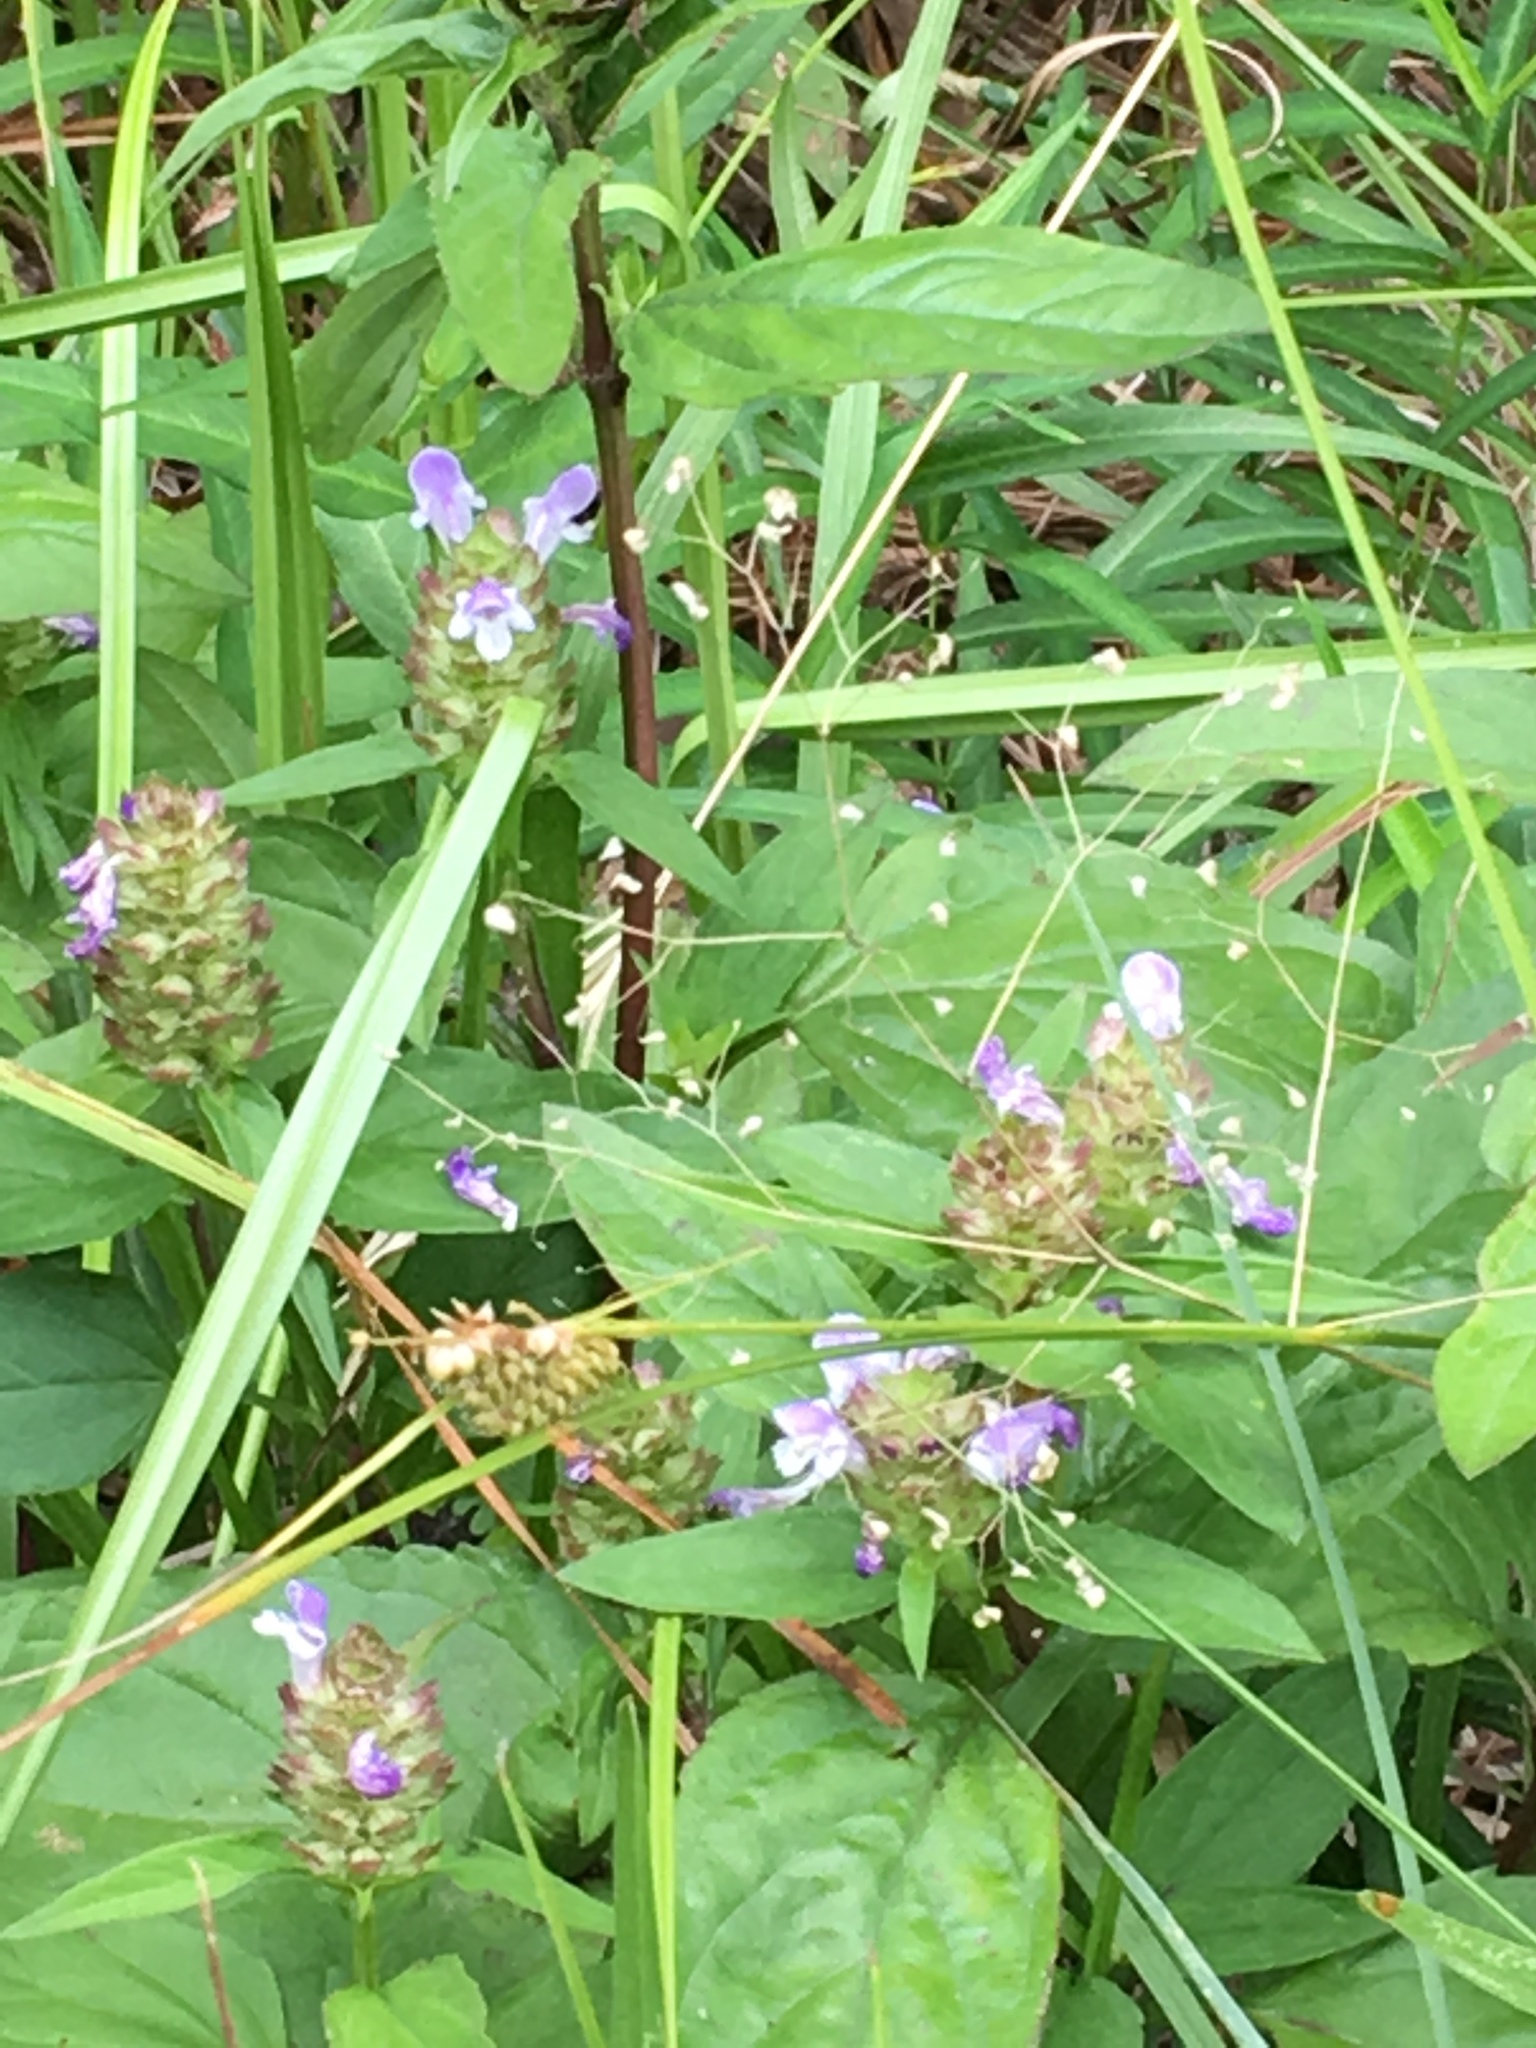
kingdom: Plantae
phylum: Tracheophyta
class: Magnoliopsida
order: Lamiales
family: Lamiaceae
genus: Prunella
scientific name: Prunella vulgaris
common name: Heal-all
